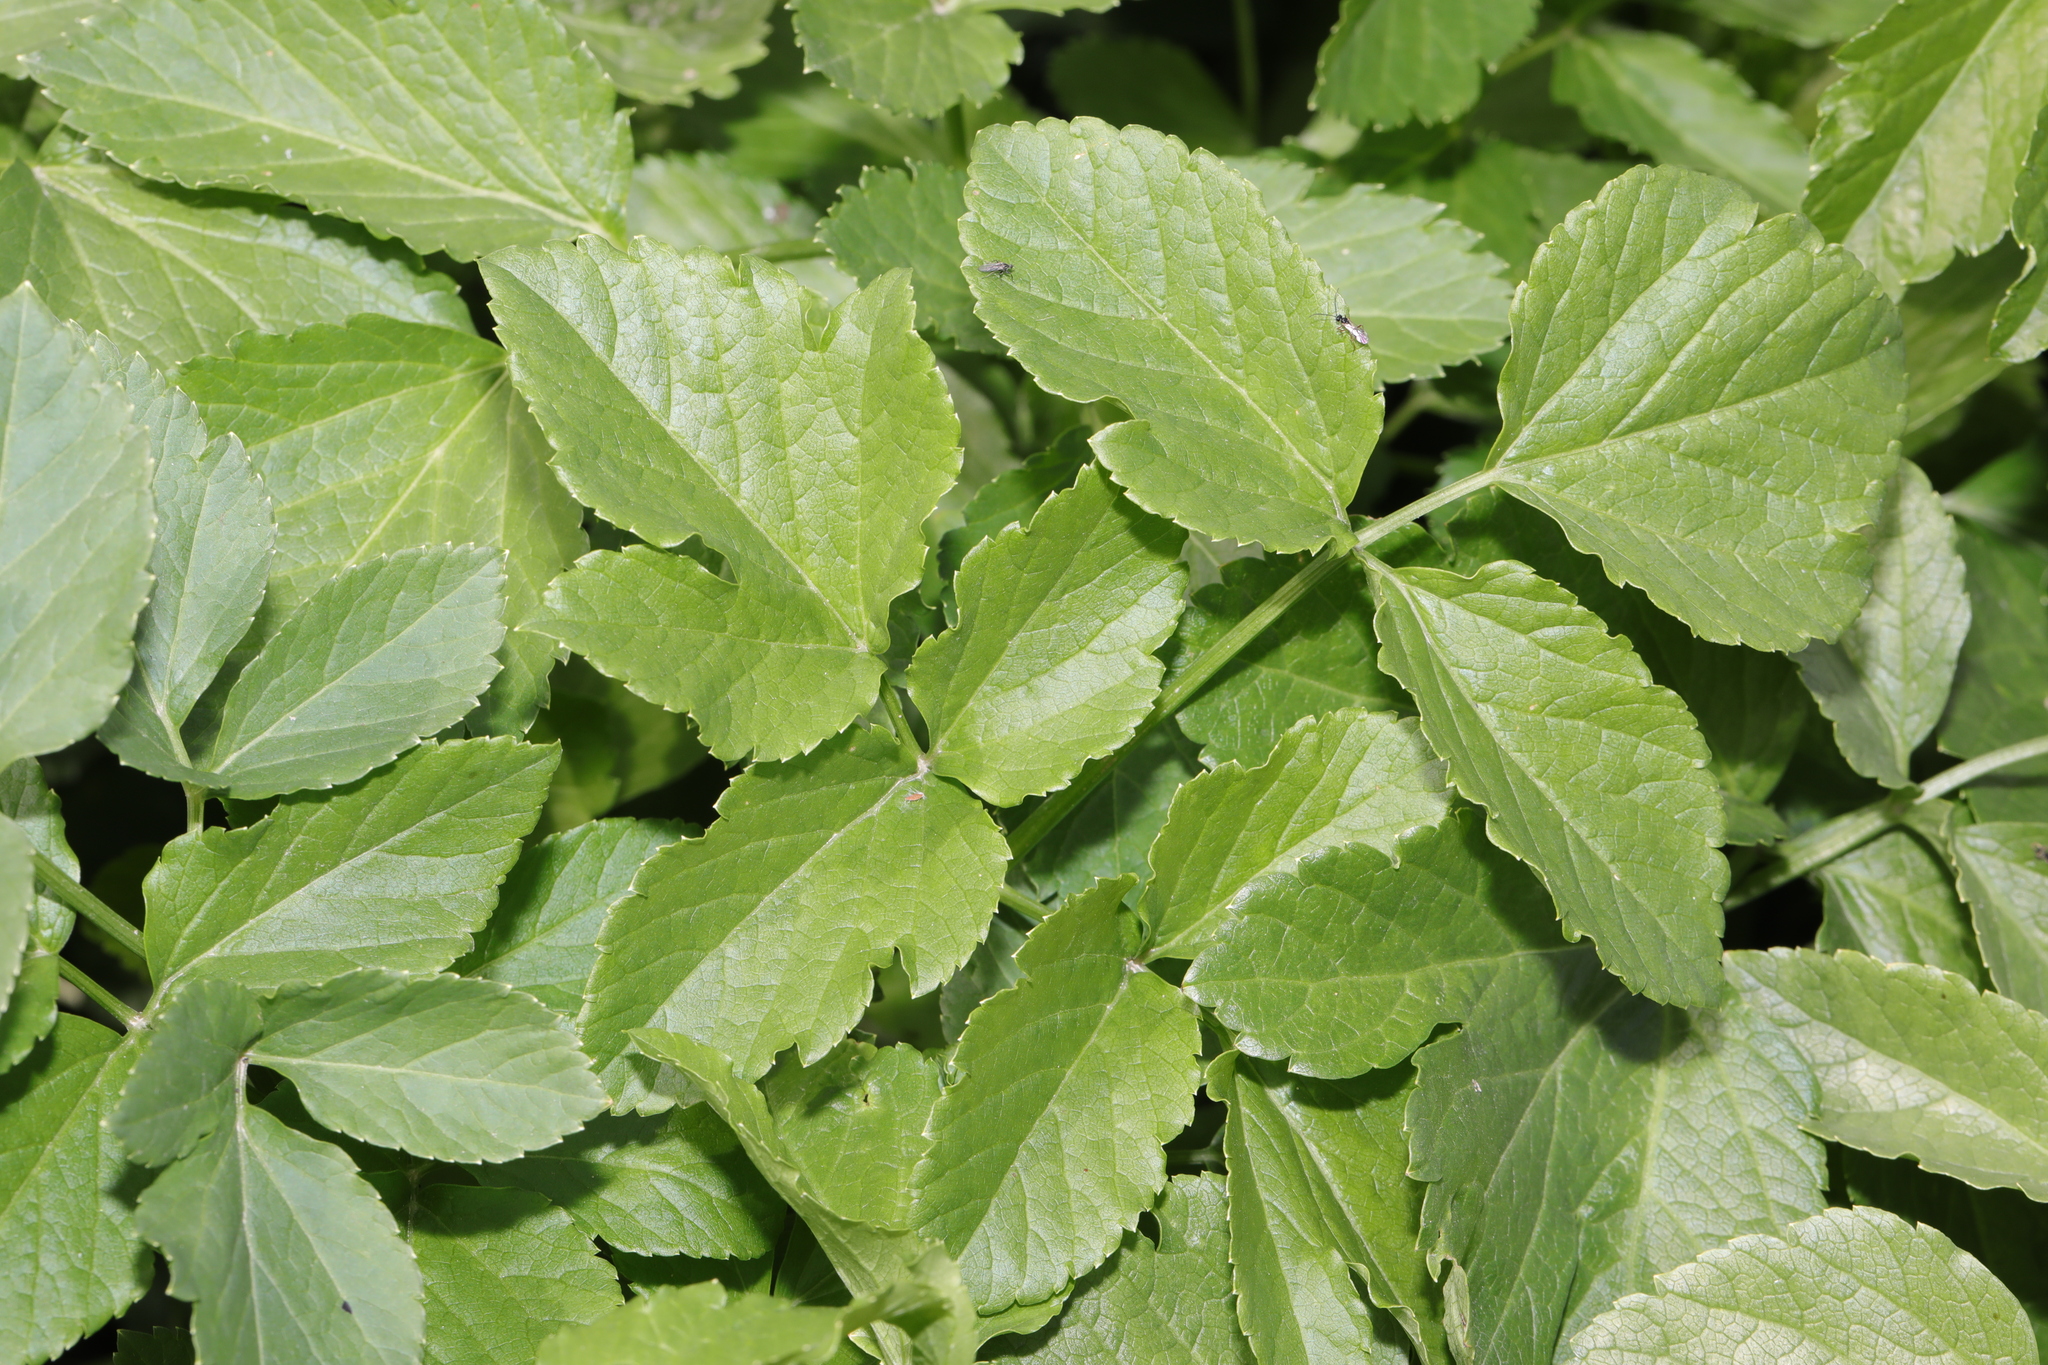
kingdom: Plantae
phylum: Tracheophyta
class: Magnoliopsida
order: Apiales
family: Apiaceae
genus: Smyrnium
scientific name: Smyrnium olusatrum
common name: Alexanders
